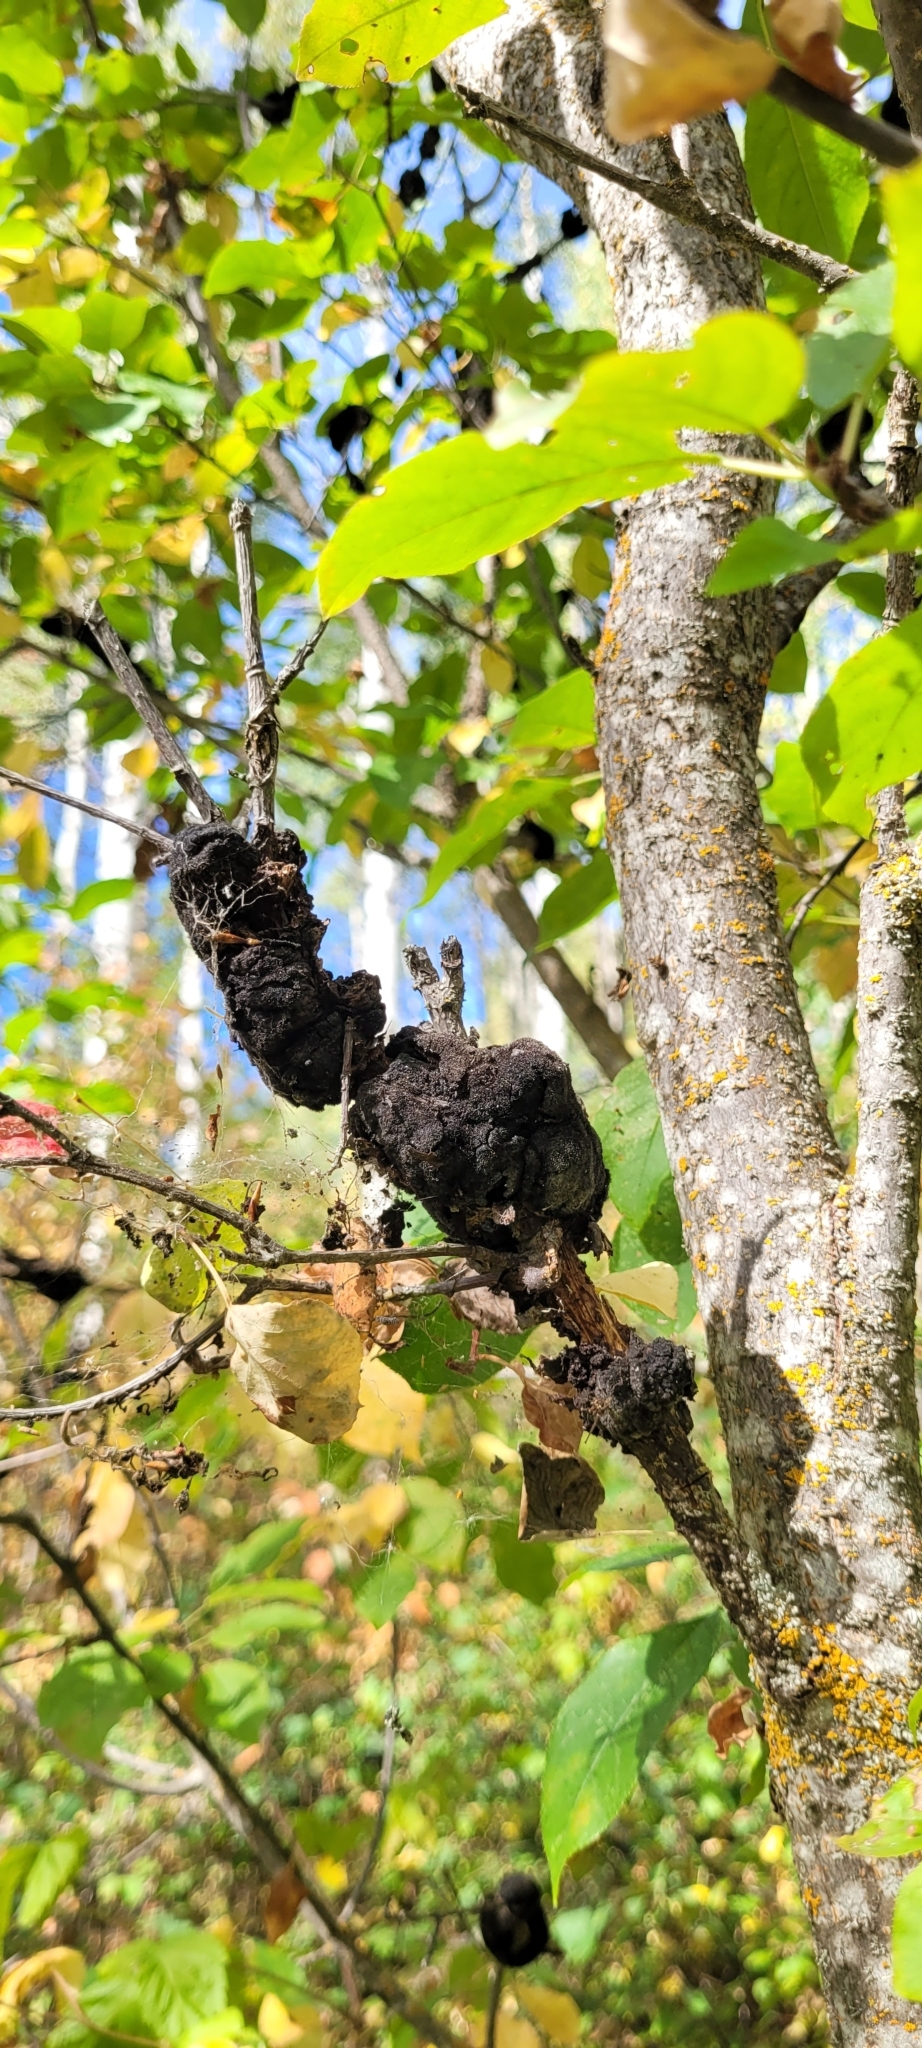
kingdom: Fungi
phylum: Ascomycota
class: Dothideomycetes
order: Venturiales
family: Venturiaceae
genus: Apiosporina
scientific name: Apiosporina morbosa
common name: Black knot
